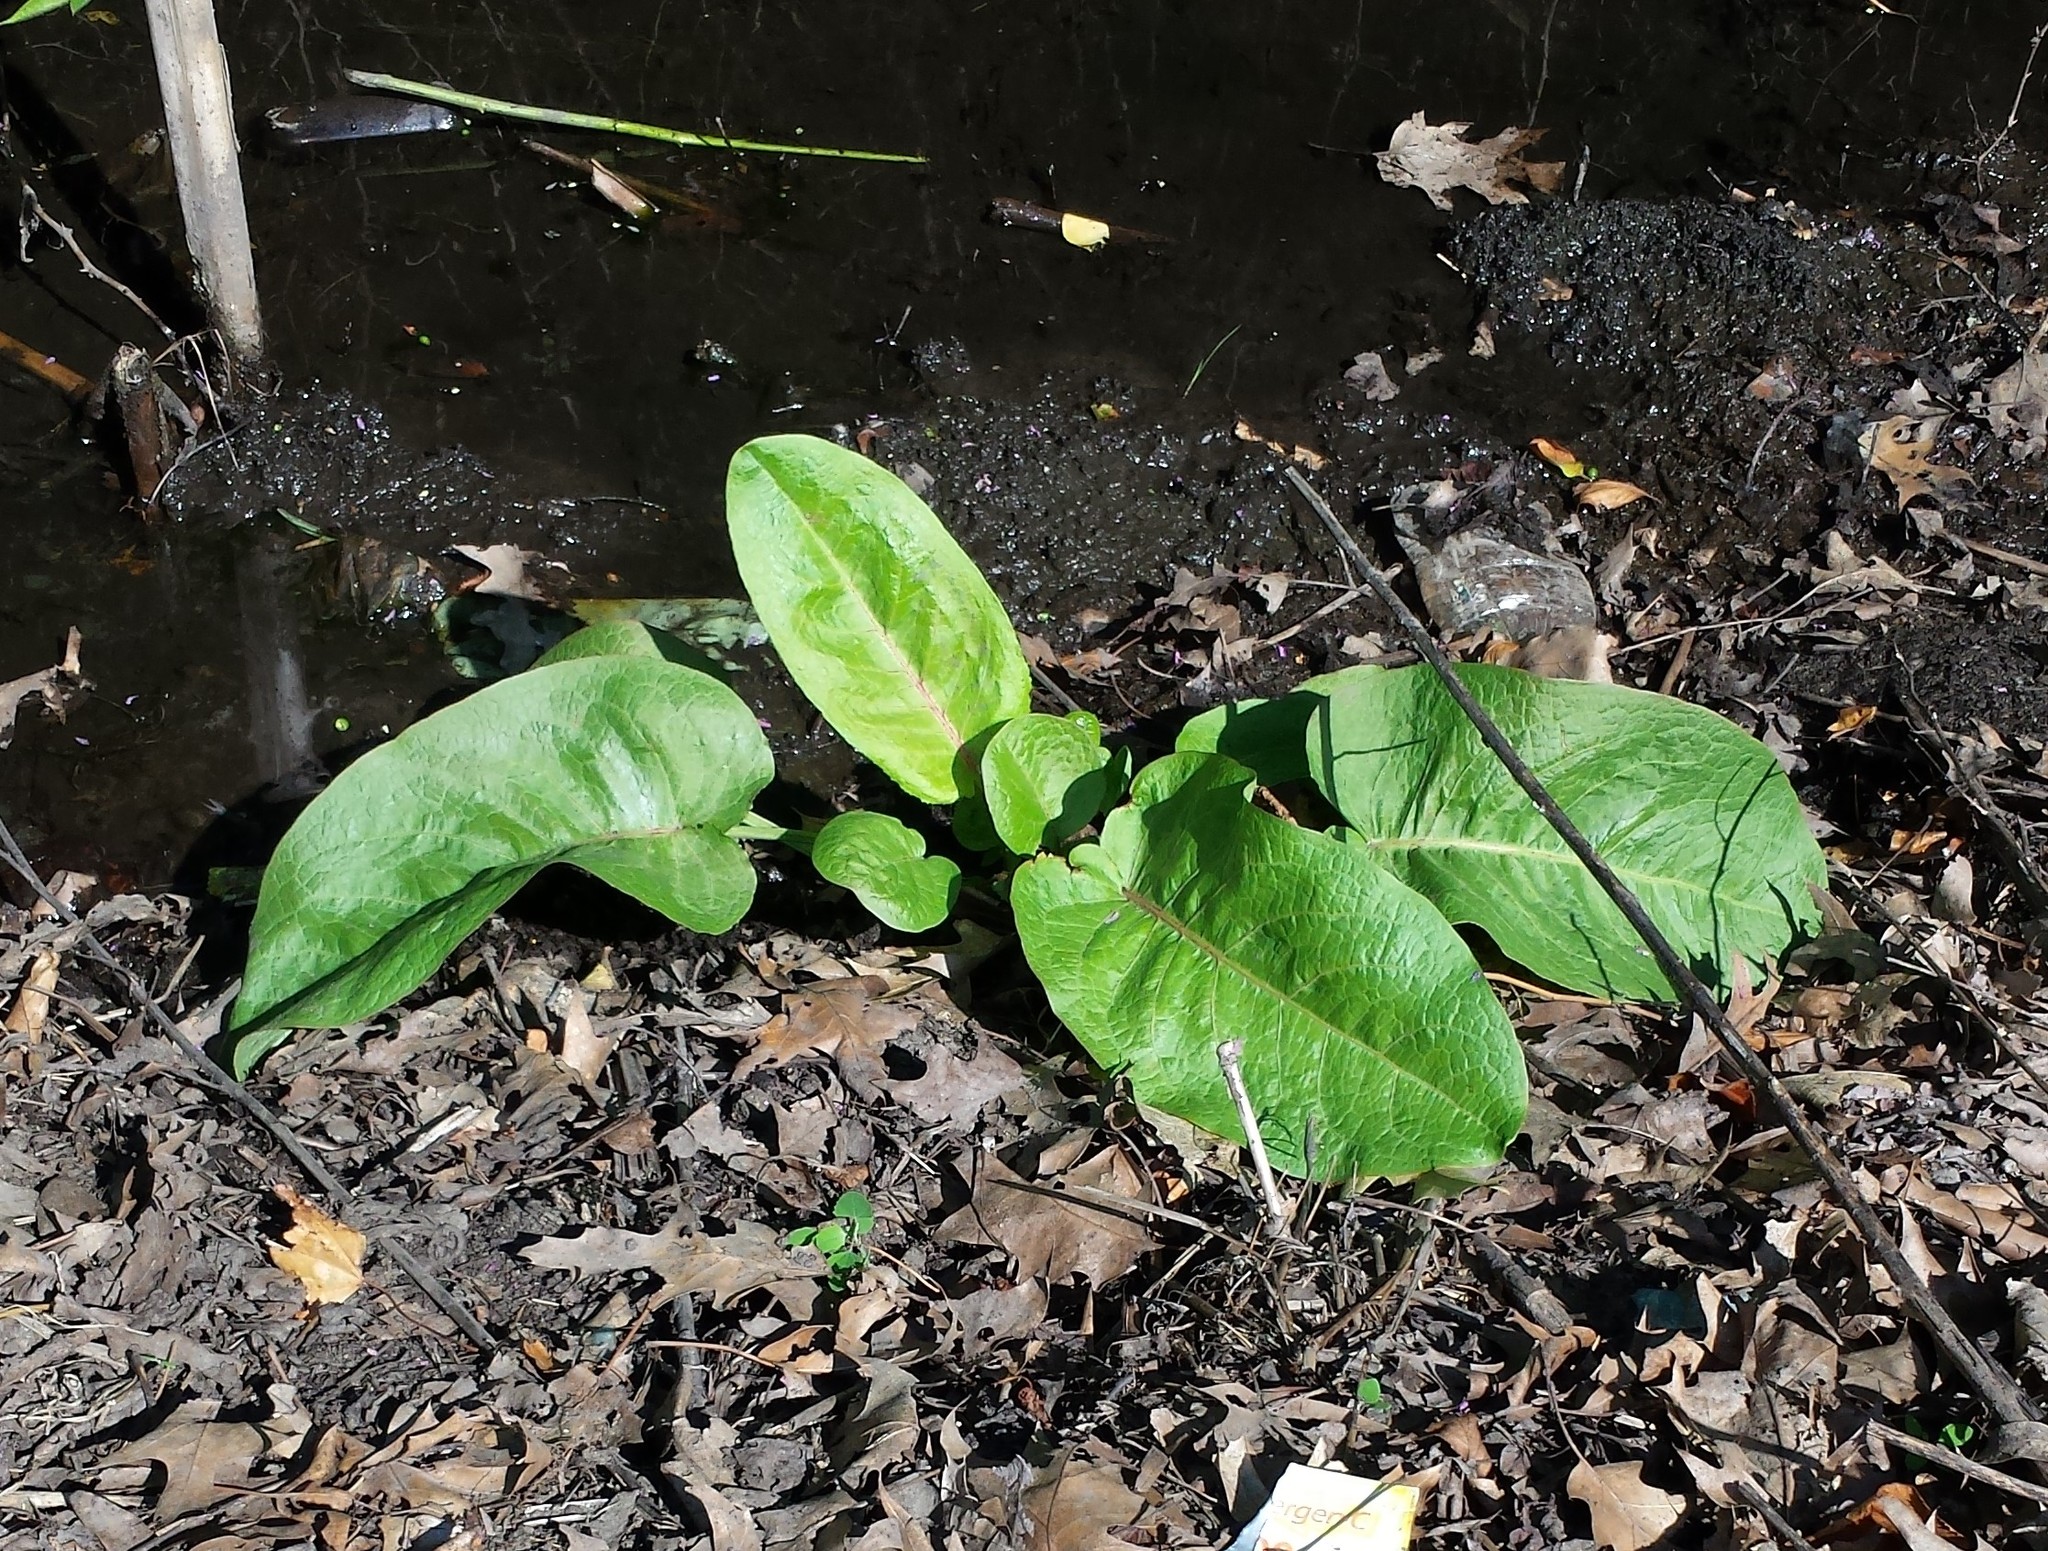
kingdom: Plantae
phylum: Tracheophyta
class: Magnoliopsida
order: Caryophyllales
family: Polygonaceae
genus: Rumex
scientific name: Rumex obtusifolius
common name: Bitter dock
